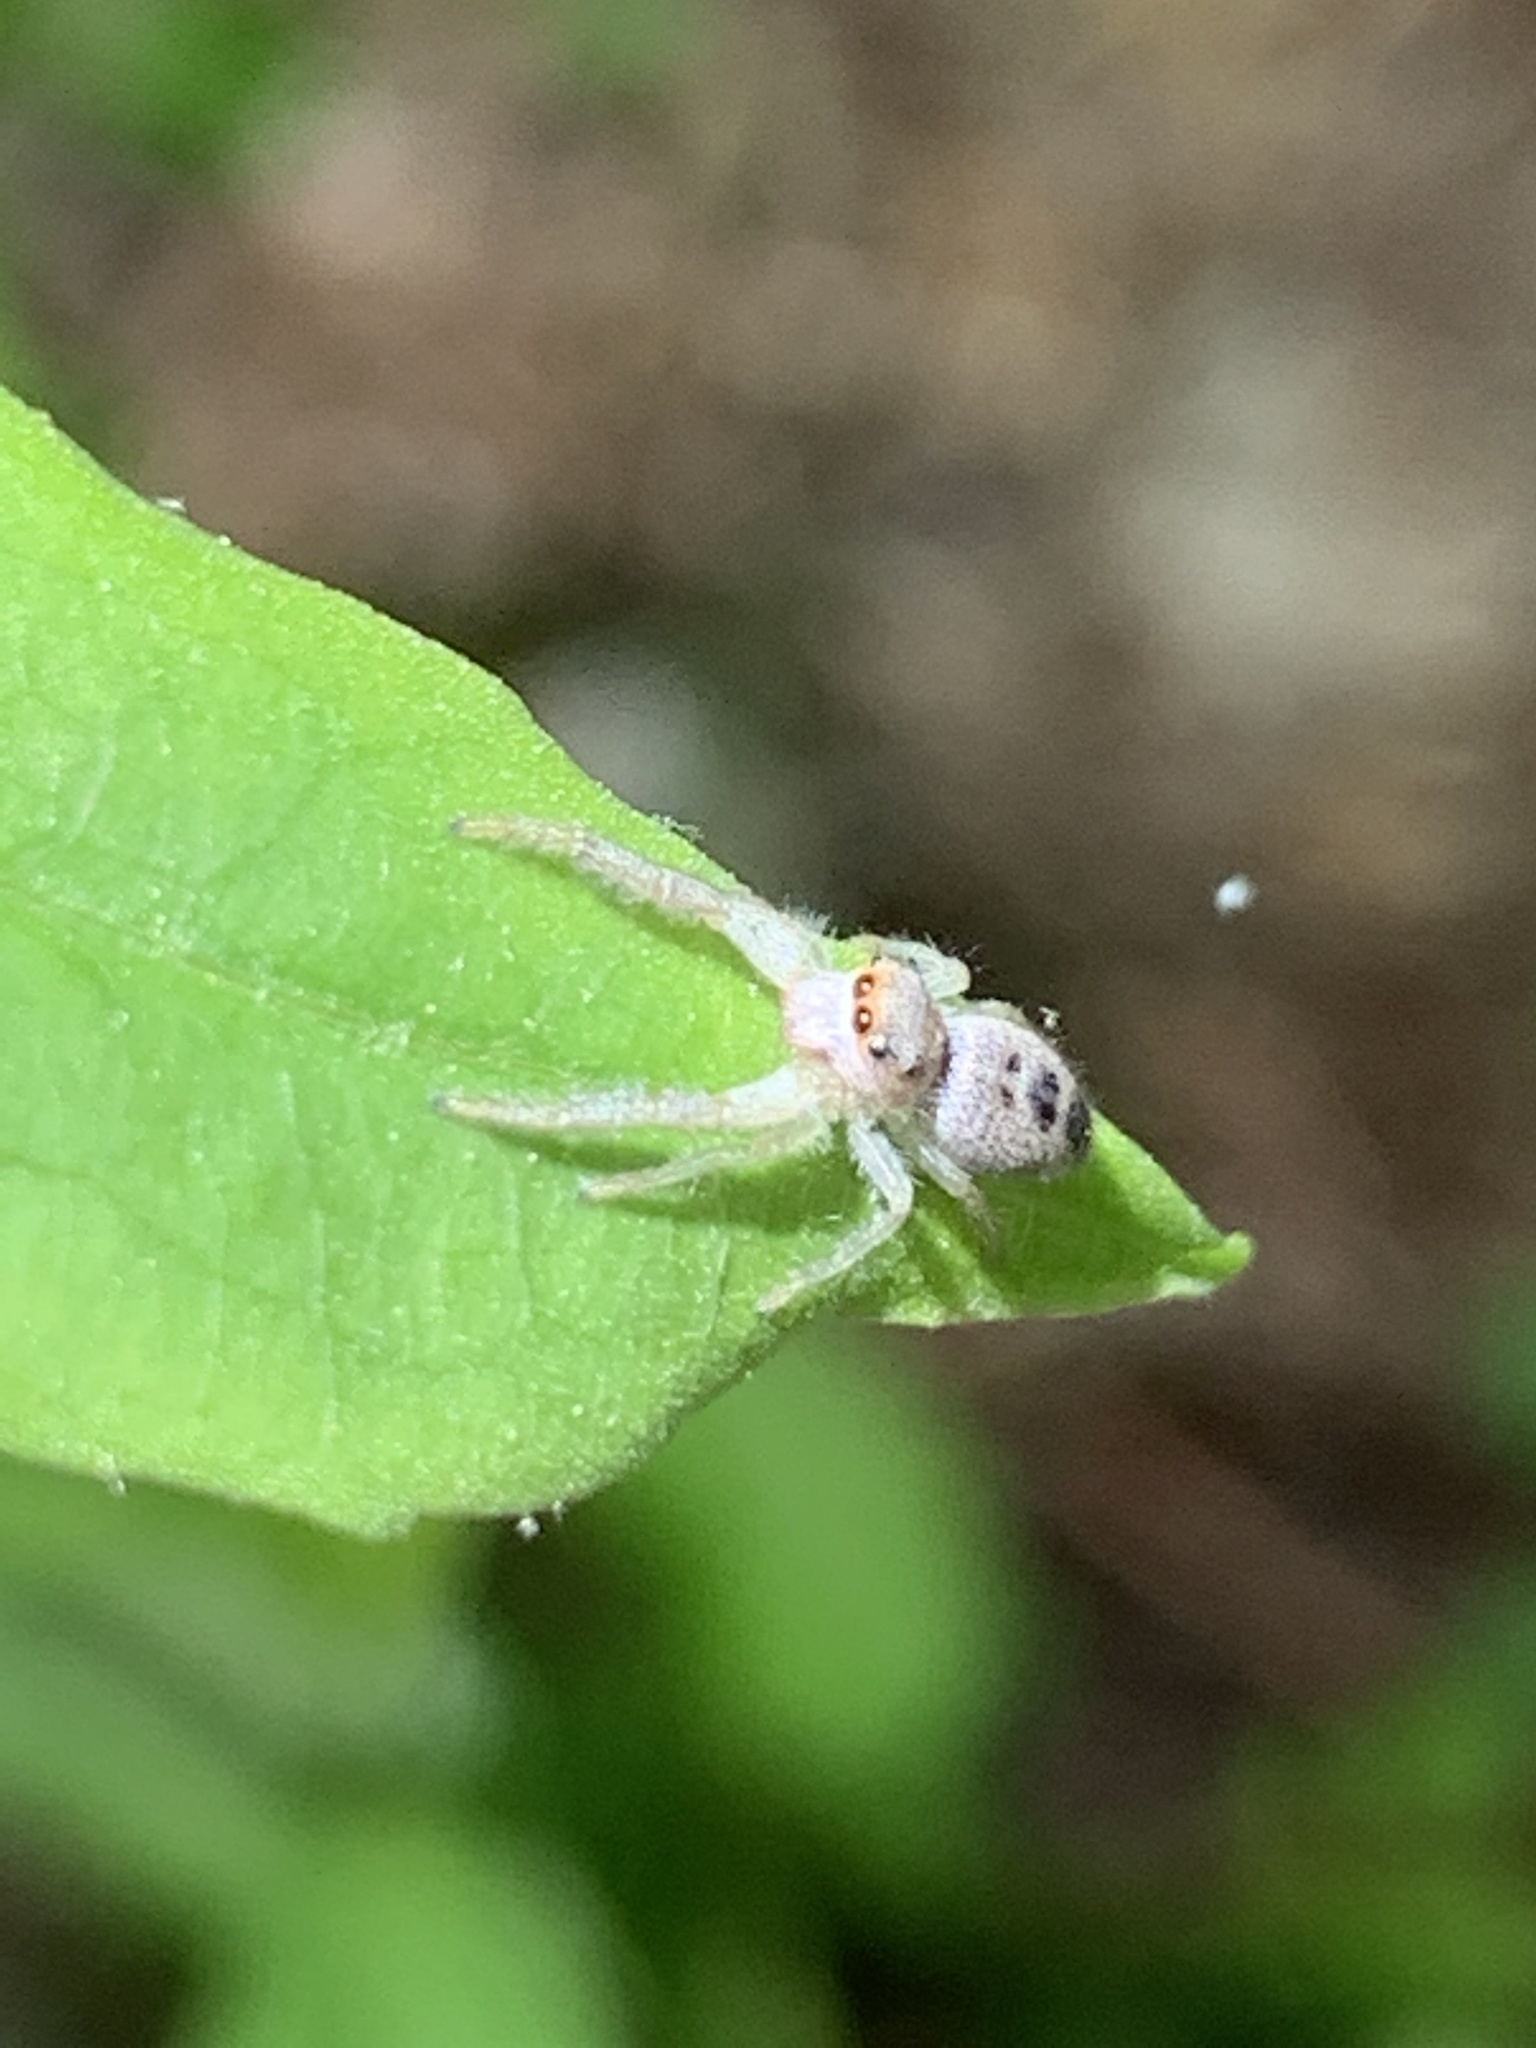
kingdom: Animalia
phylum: Arthropoda
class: Arachnida
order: Araneae
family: Salticidae
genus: Hentzia
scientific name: Hentzia mitrata
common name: White-jawed jumping spider
